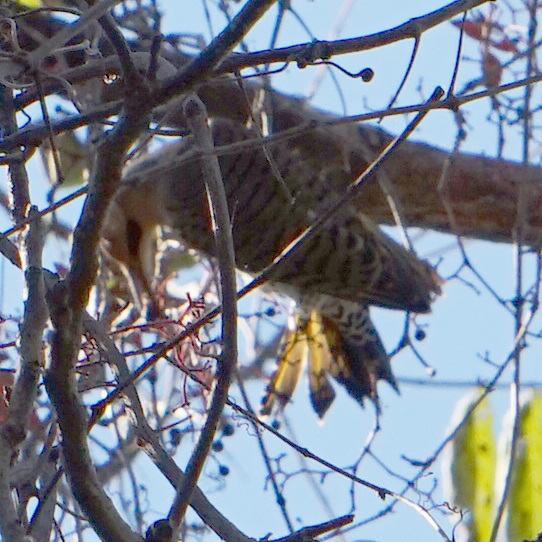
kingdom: Animalia
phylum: Chordata
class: Aves
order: Piciformes
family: Picidae
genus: Colaptes
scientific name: Colaptes auratus
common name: Northern flicker
